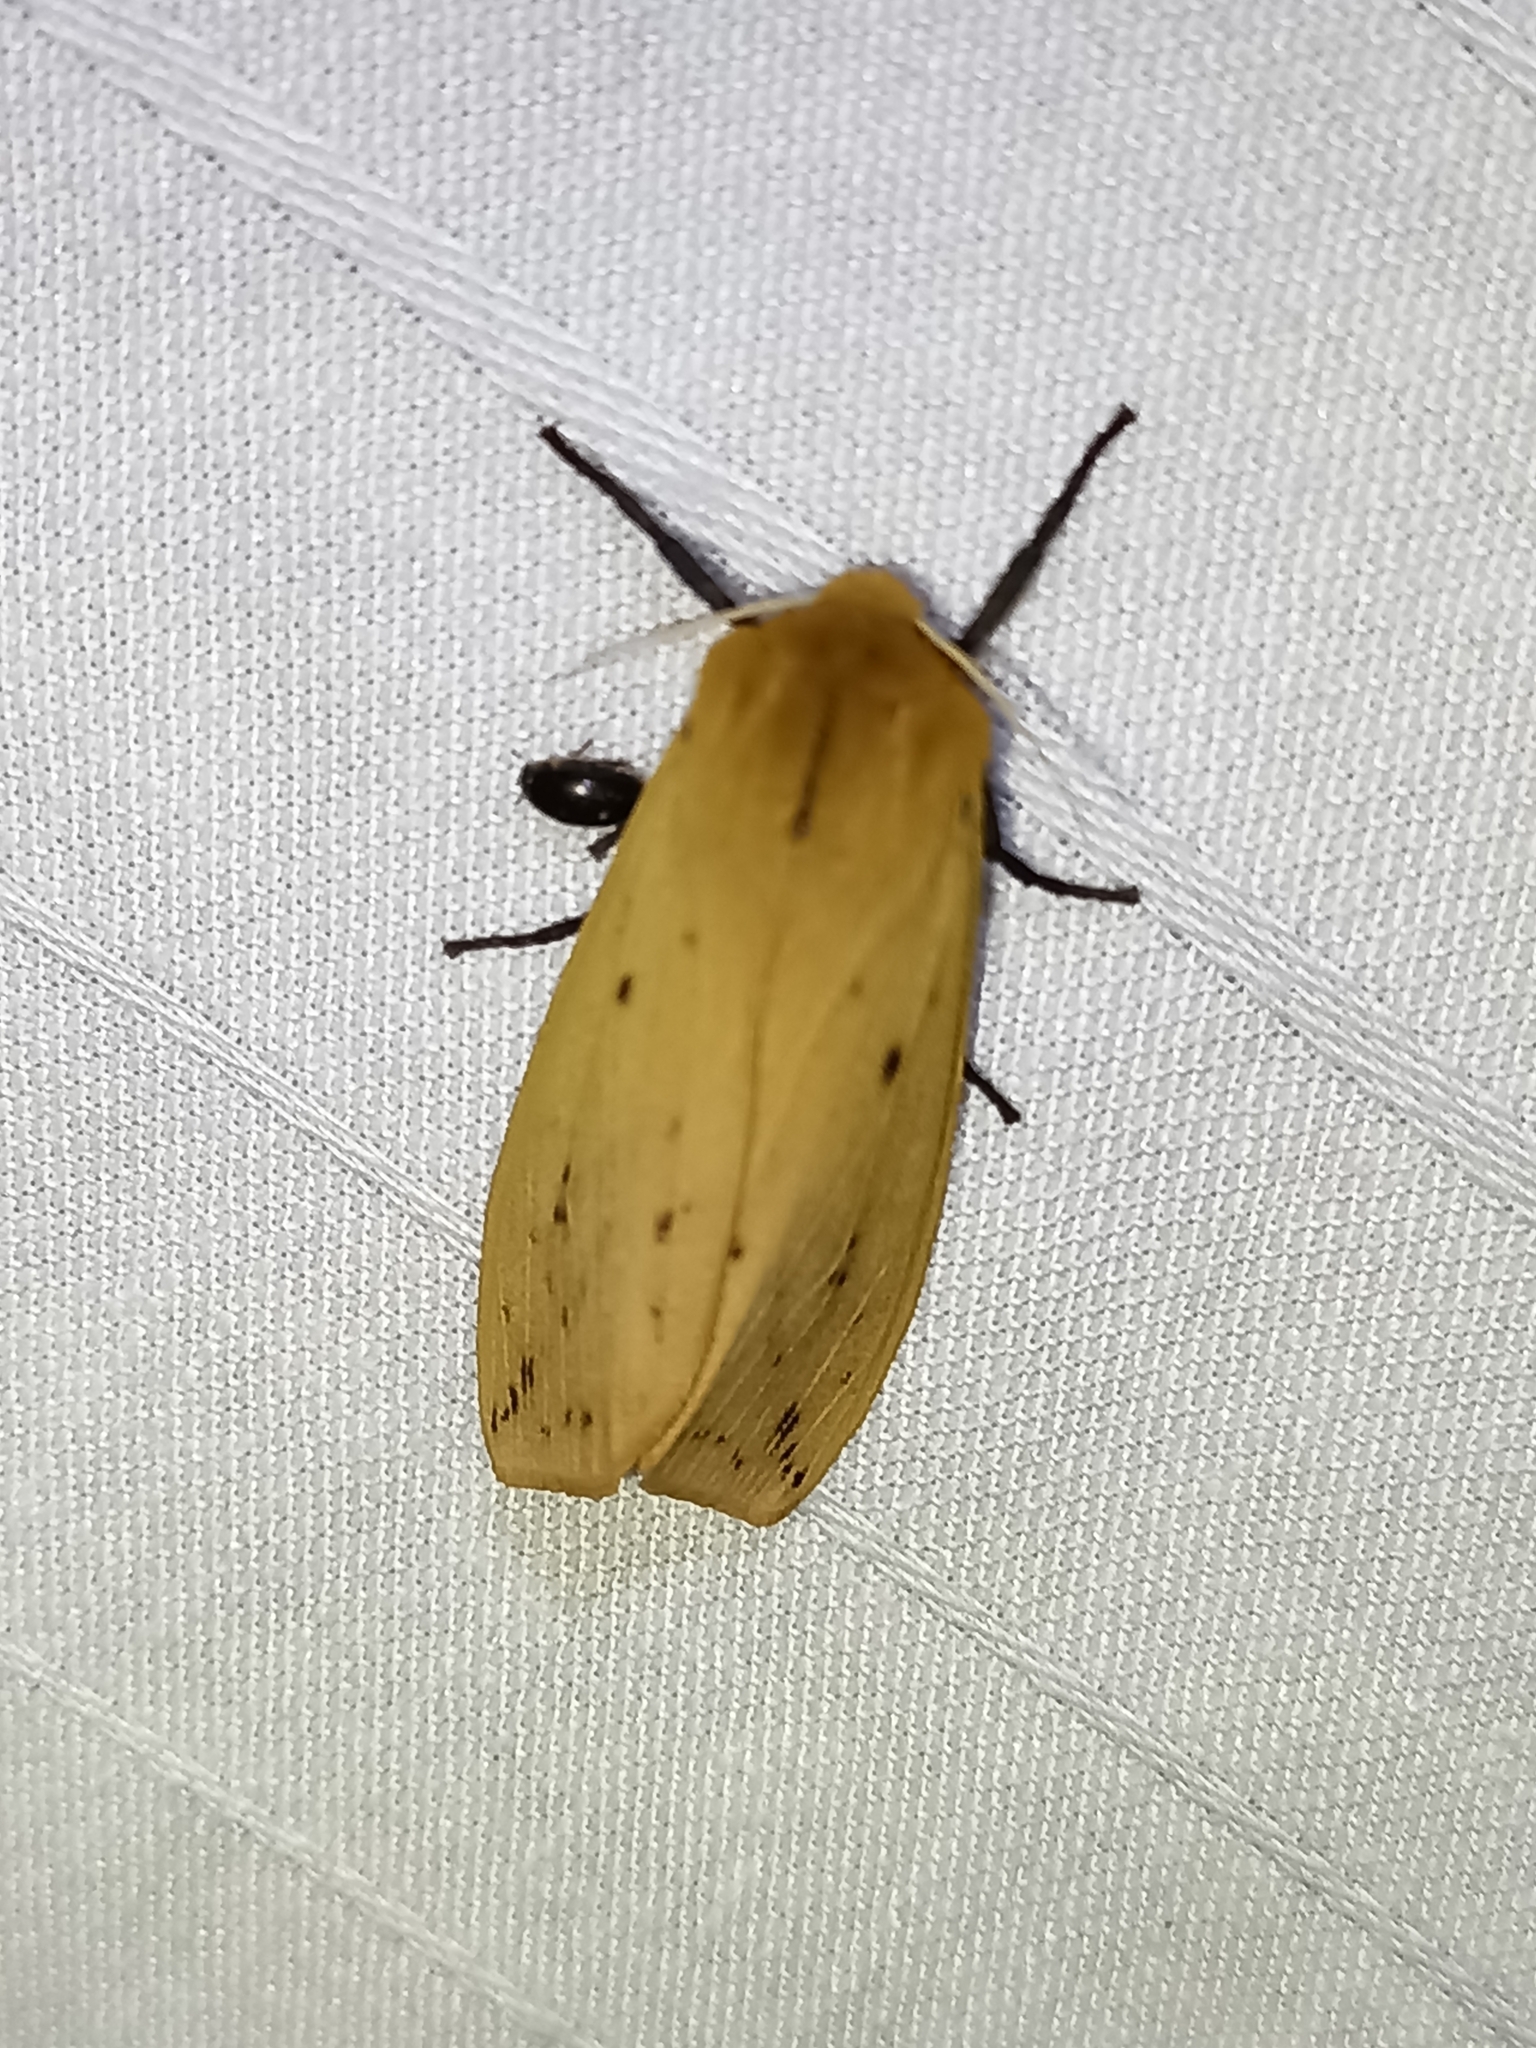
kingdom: Animalia
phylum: Arthropoda
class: Insecta
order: Lepidoptera
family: Erebidae
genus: Pyrrharctia
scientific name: Pyrrharctia isabella
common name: Isabella tiger moth
